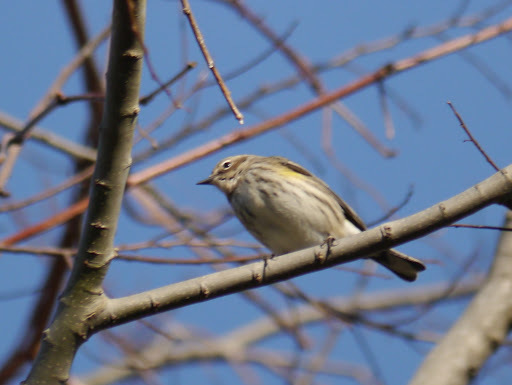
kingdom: Animalia
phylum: Chordata
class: Aves
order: Passeriformes
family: Parulidae
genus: Setophaga
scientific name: Setophaga coronata
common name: Myrtle warbler
